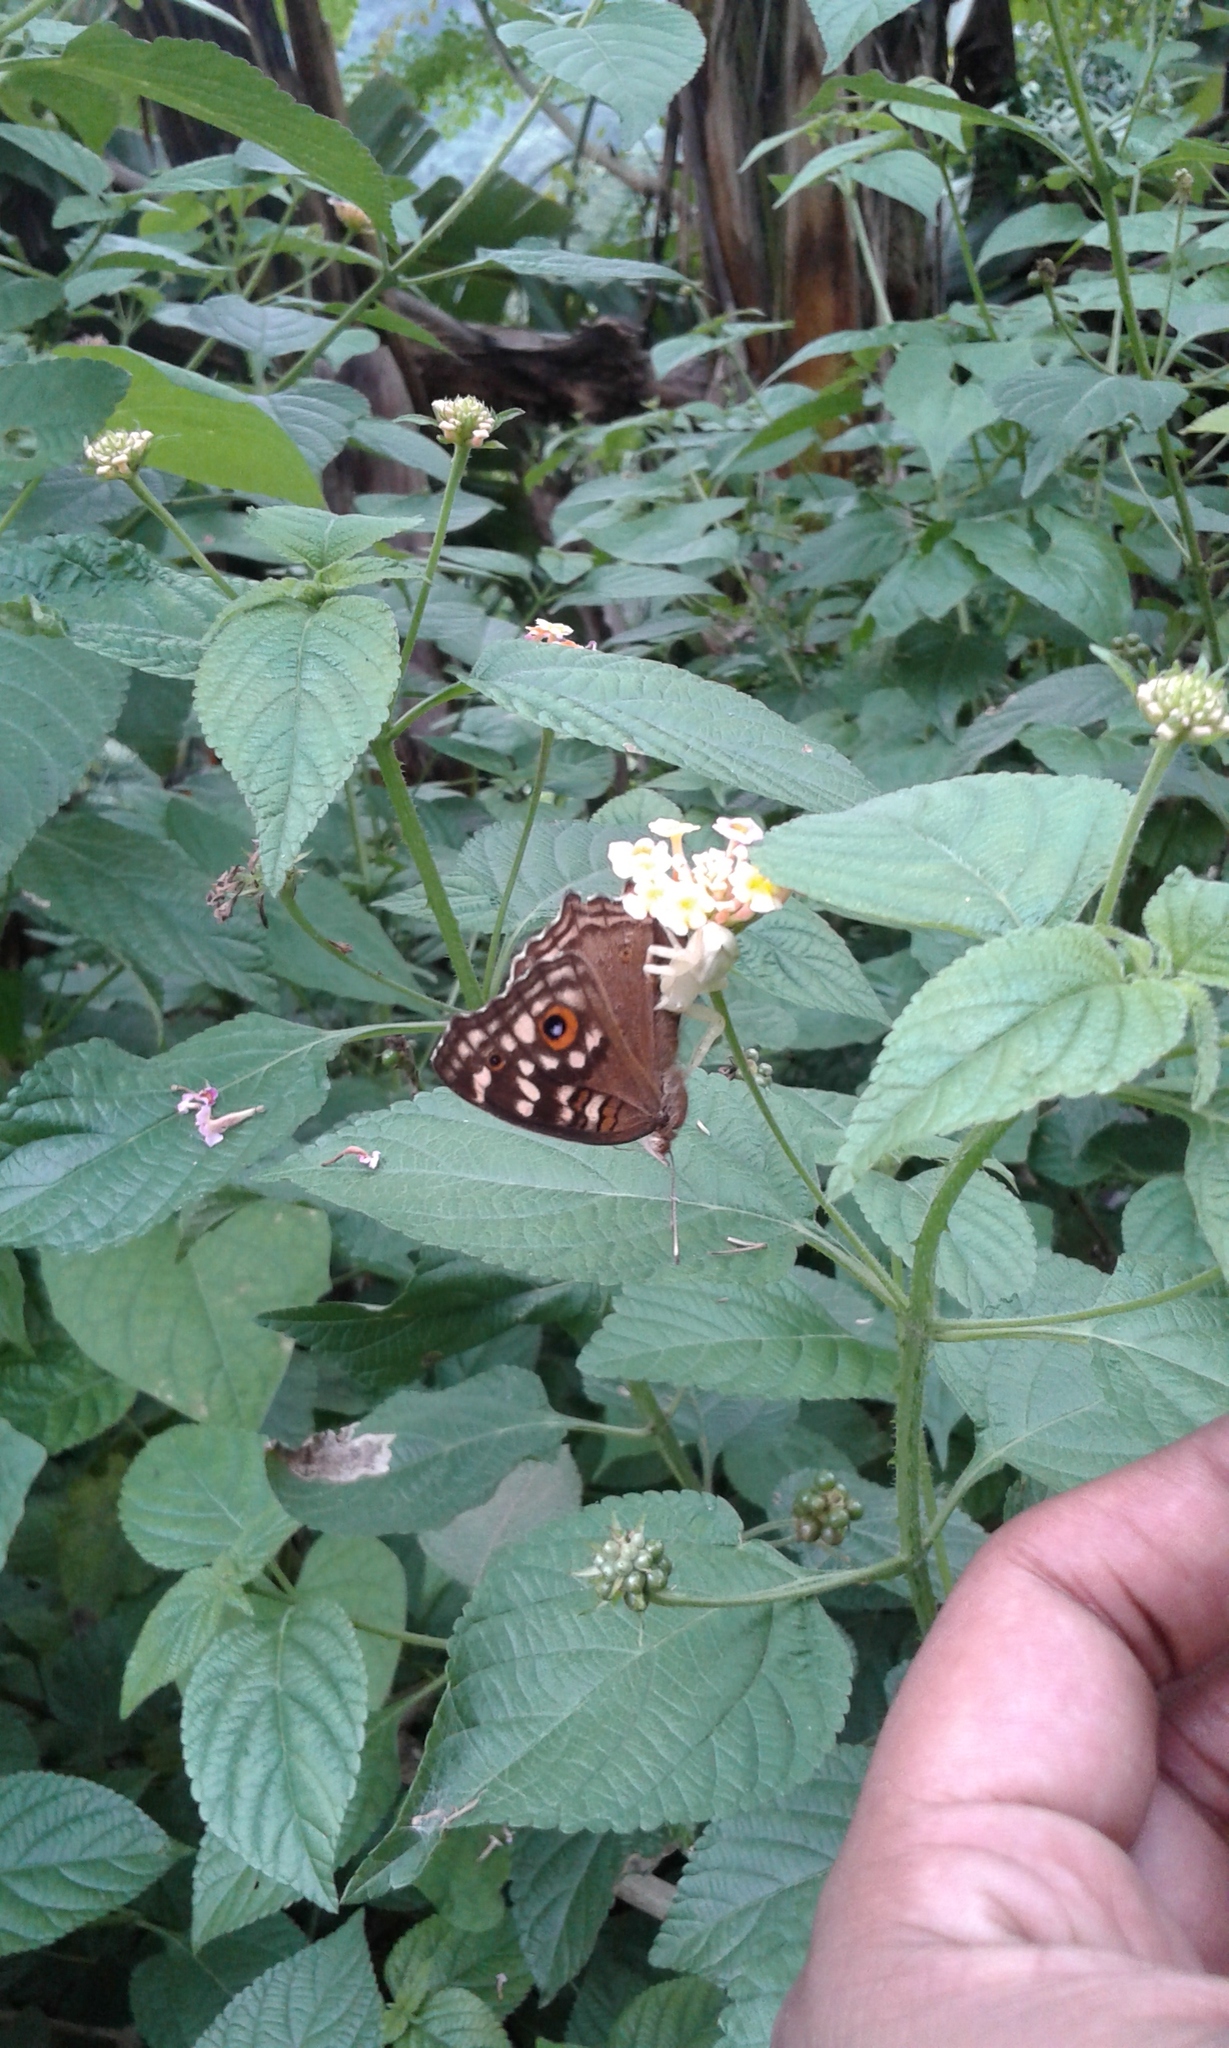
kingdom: Animalia
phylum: Arthropoda
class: Insecta
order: Lepidoptera
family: Nymphalidae
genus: Junonia
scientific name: Junonia lemonias
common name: Lemon pansy
